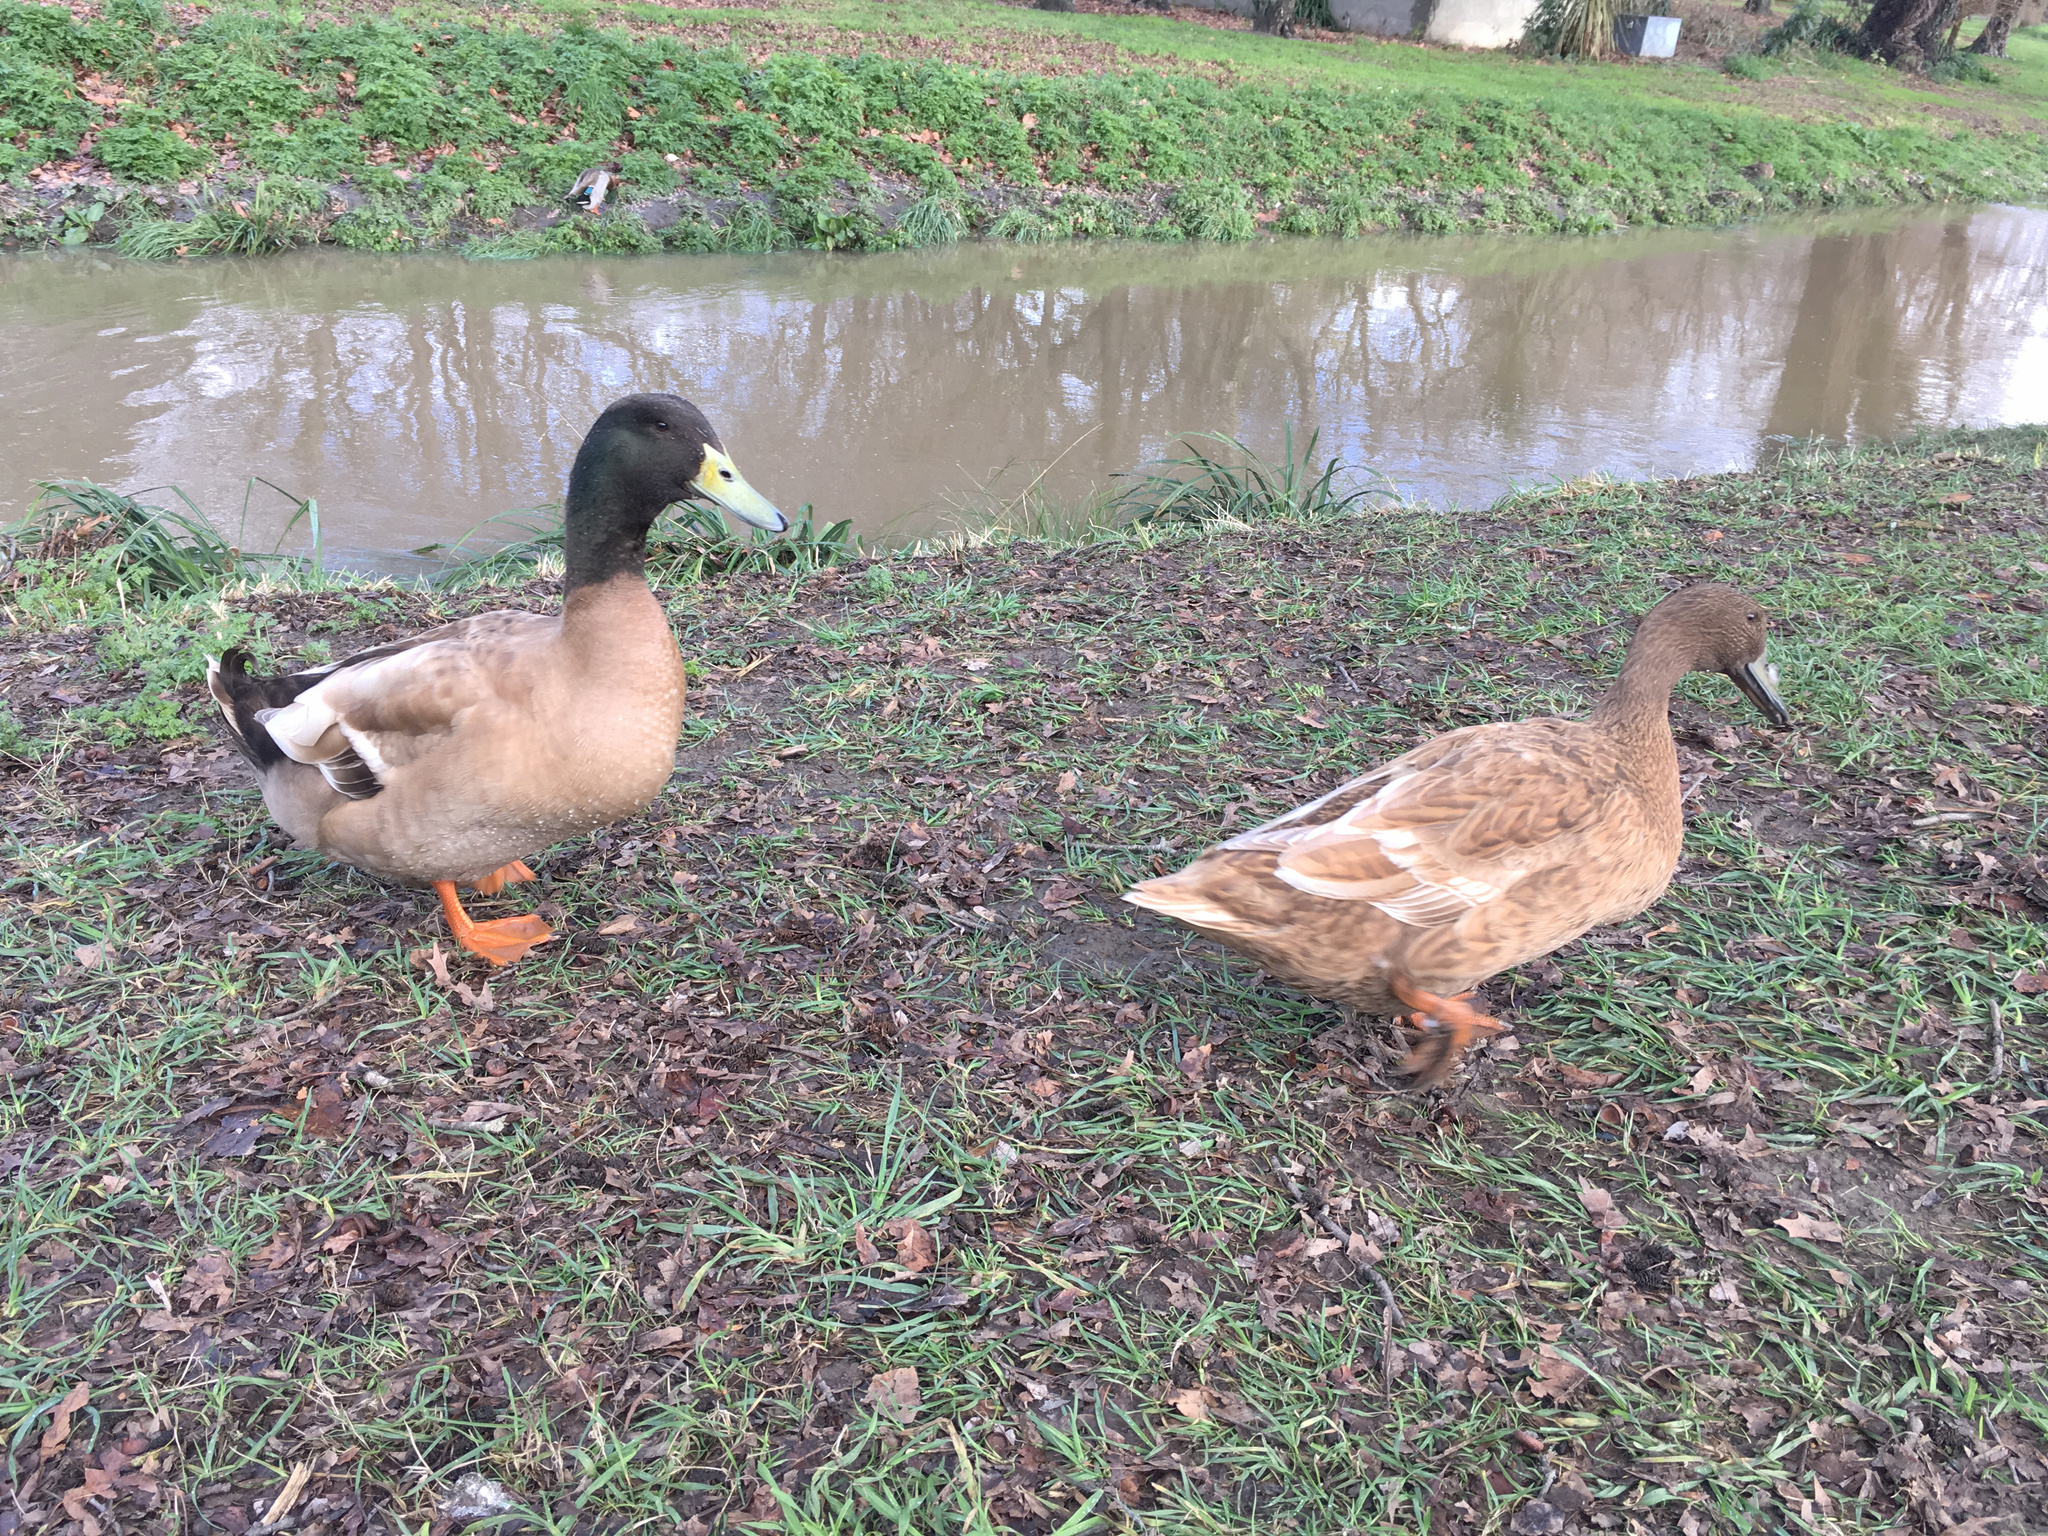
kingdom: Animalia
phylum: Chordata
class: Aves
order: Anseriformes
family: Anatidae
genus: Anas
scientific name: Anas platyrhynchos
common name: Mallard
